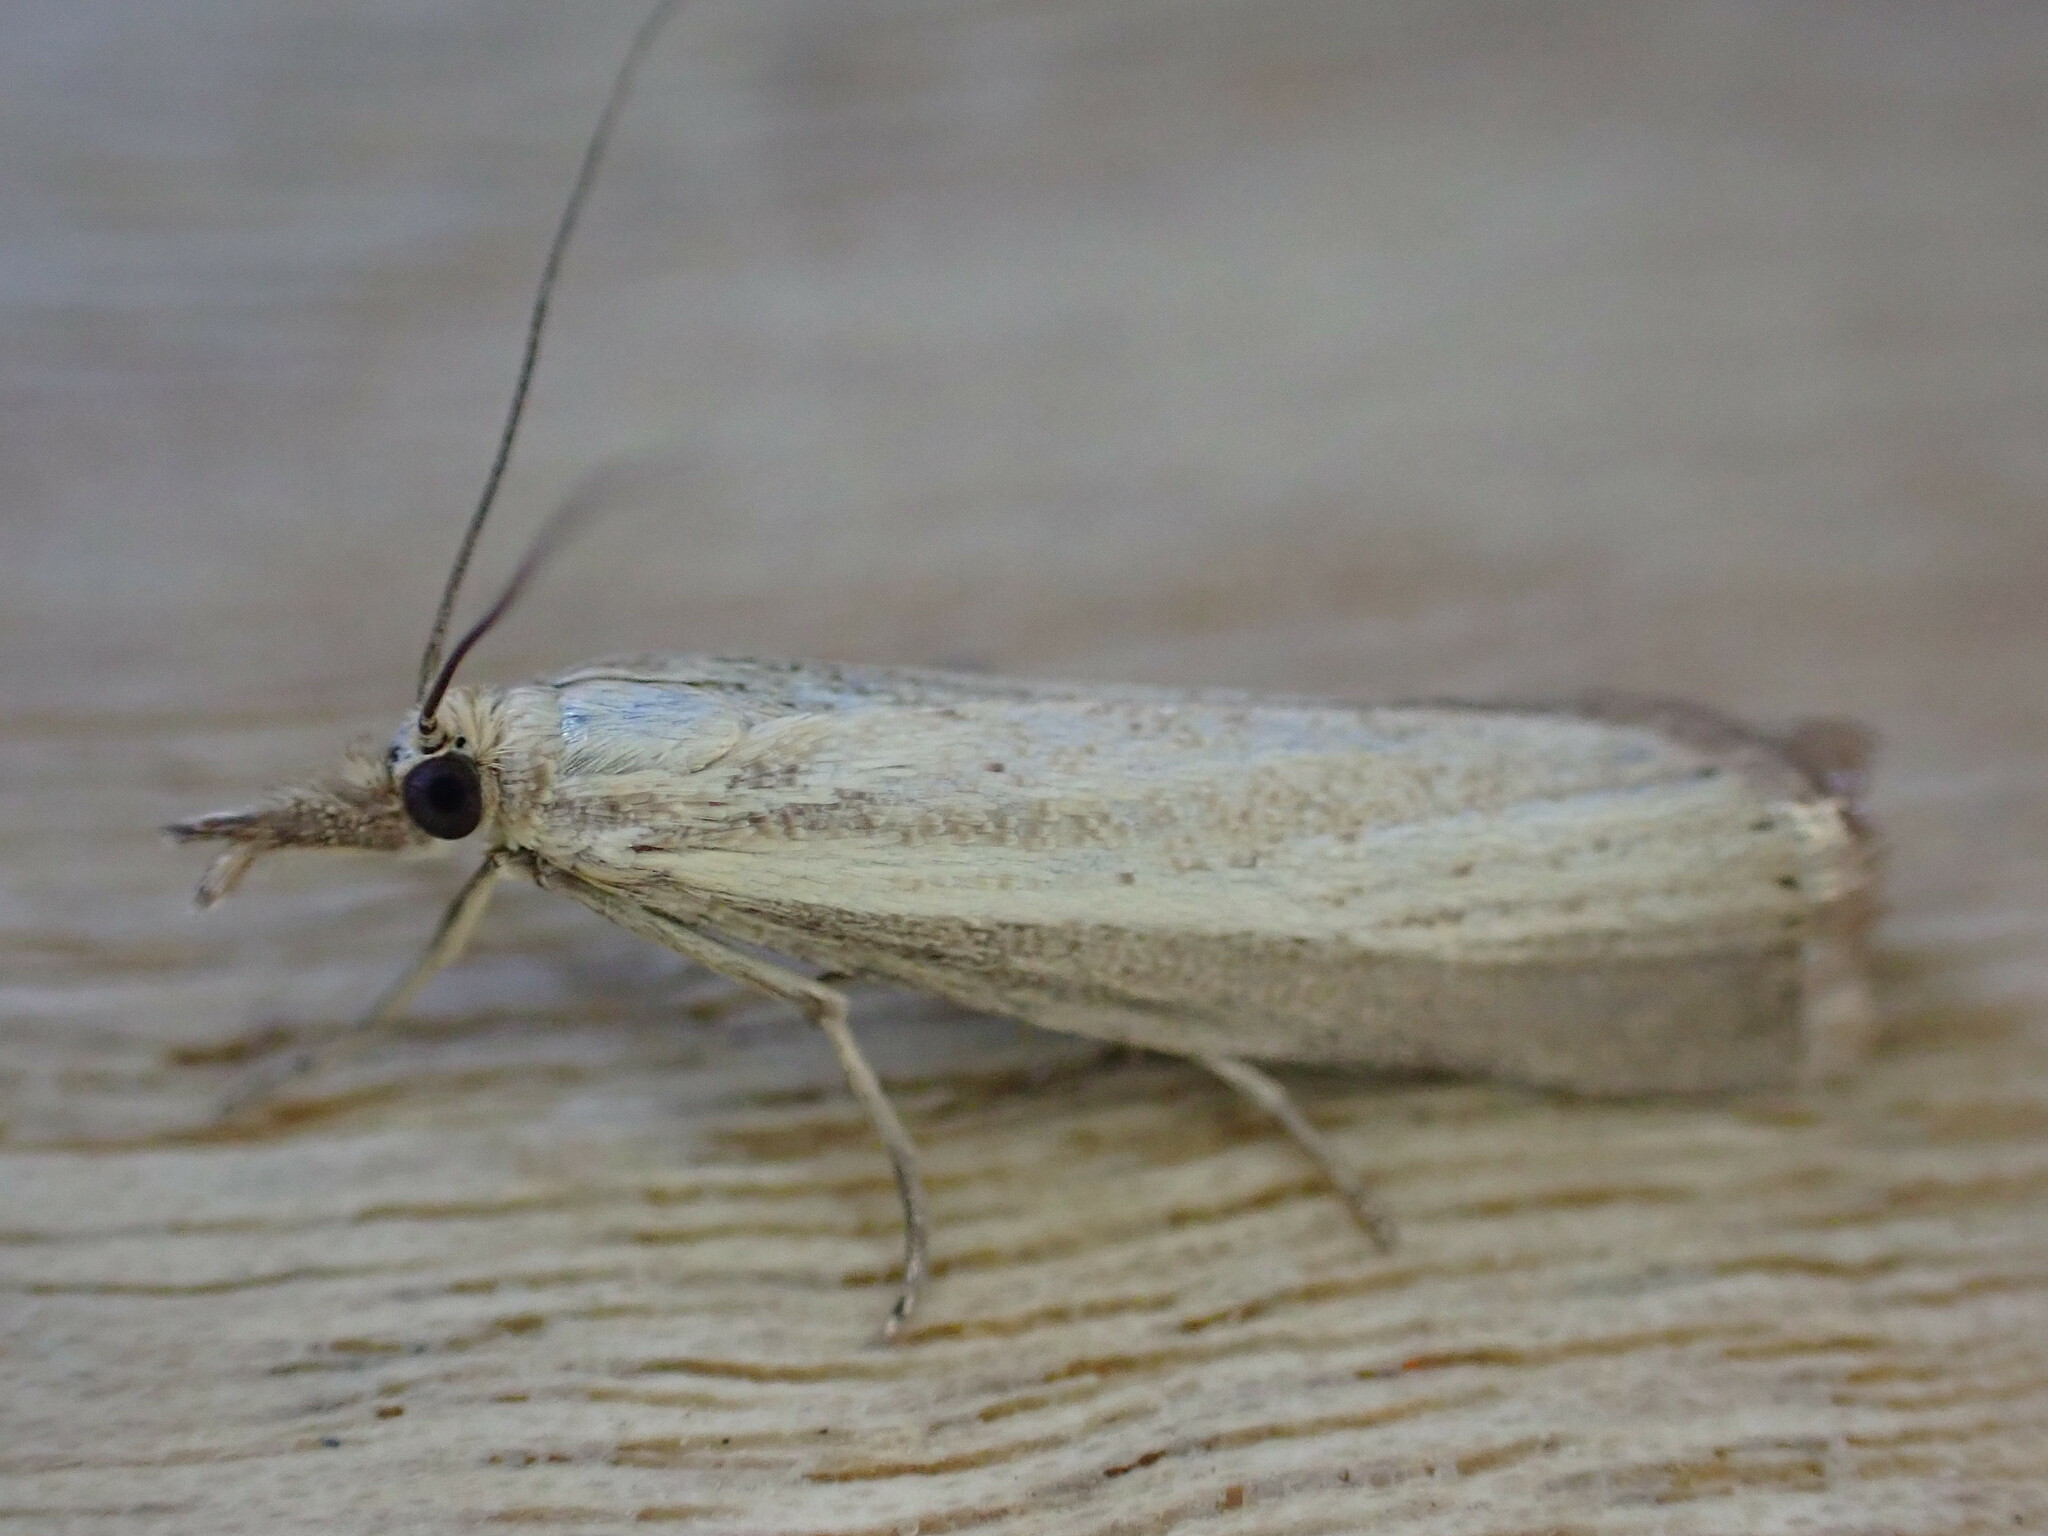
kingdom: Animalia
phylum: Arthropoda
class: Insecta
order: Lepidoptera
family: Crambidae
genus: Agriphila
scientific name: Agriphila straminella
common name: Straw grass-veneer
